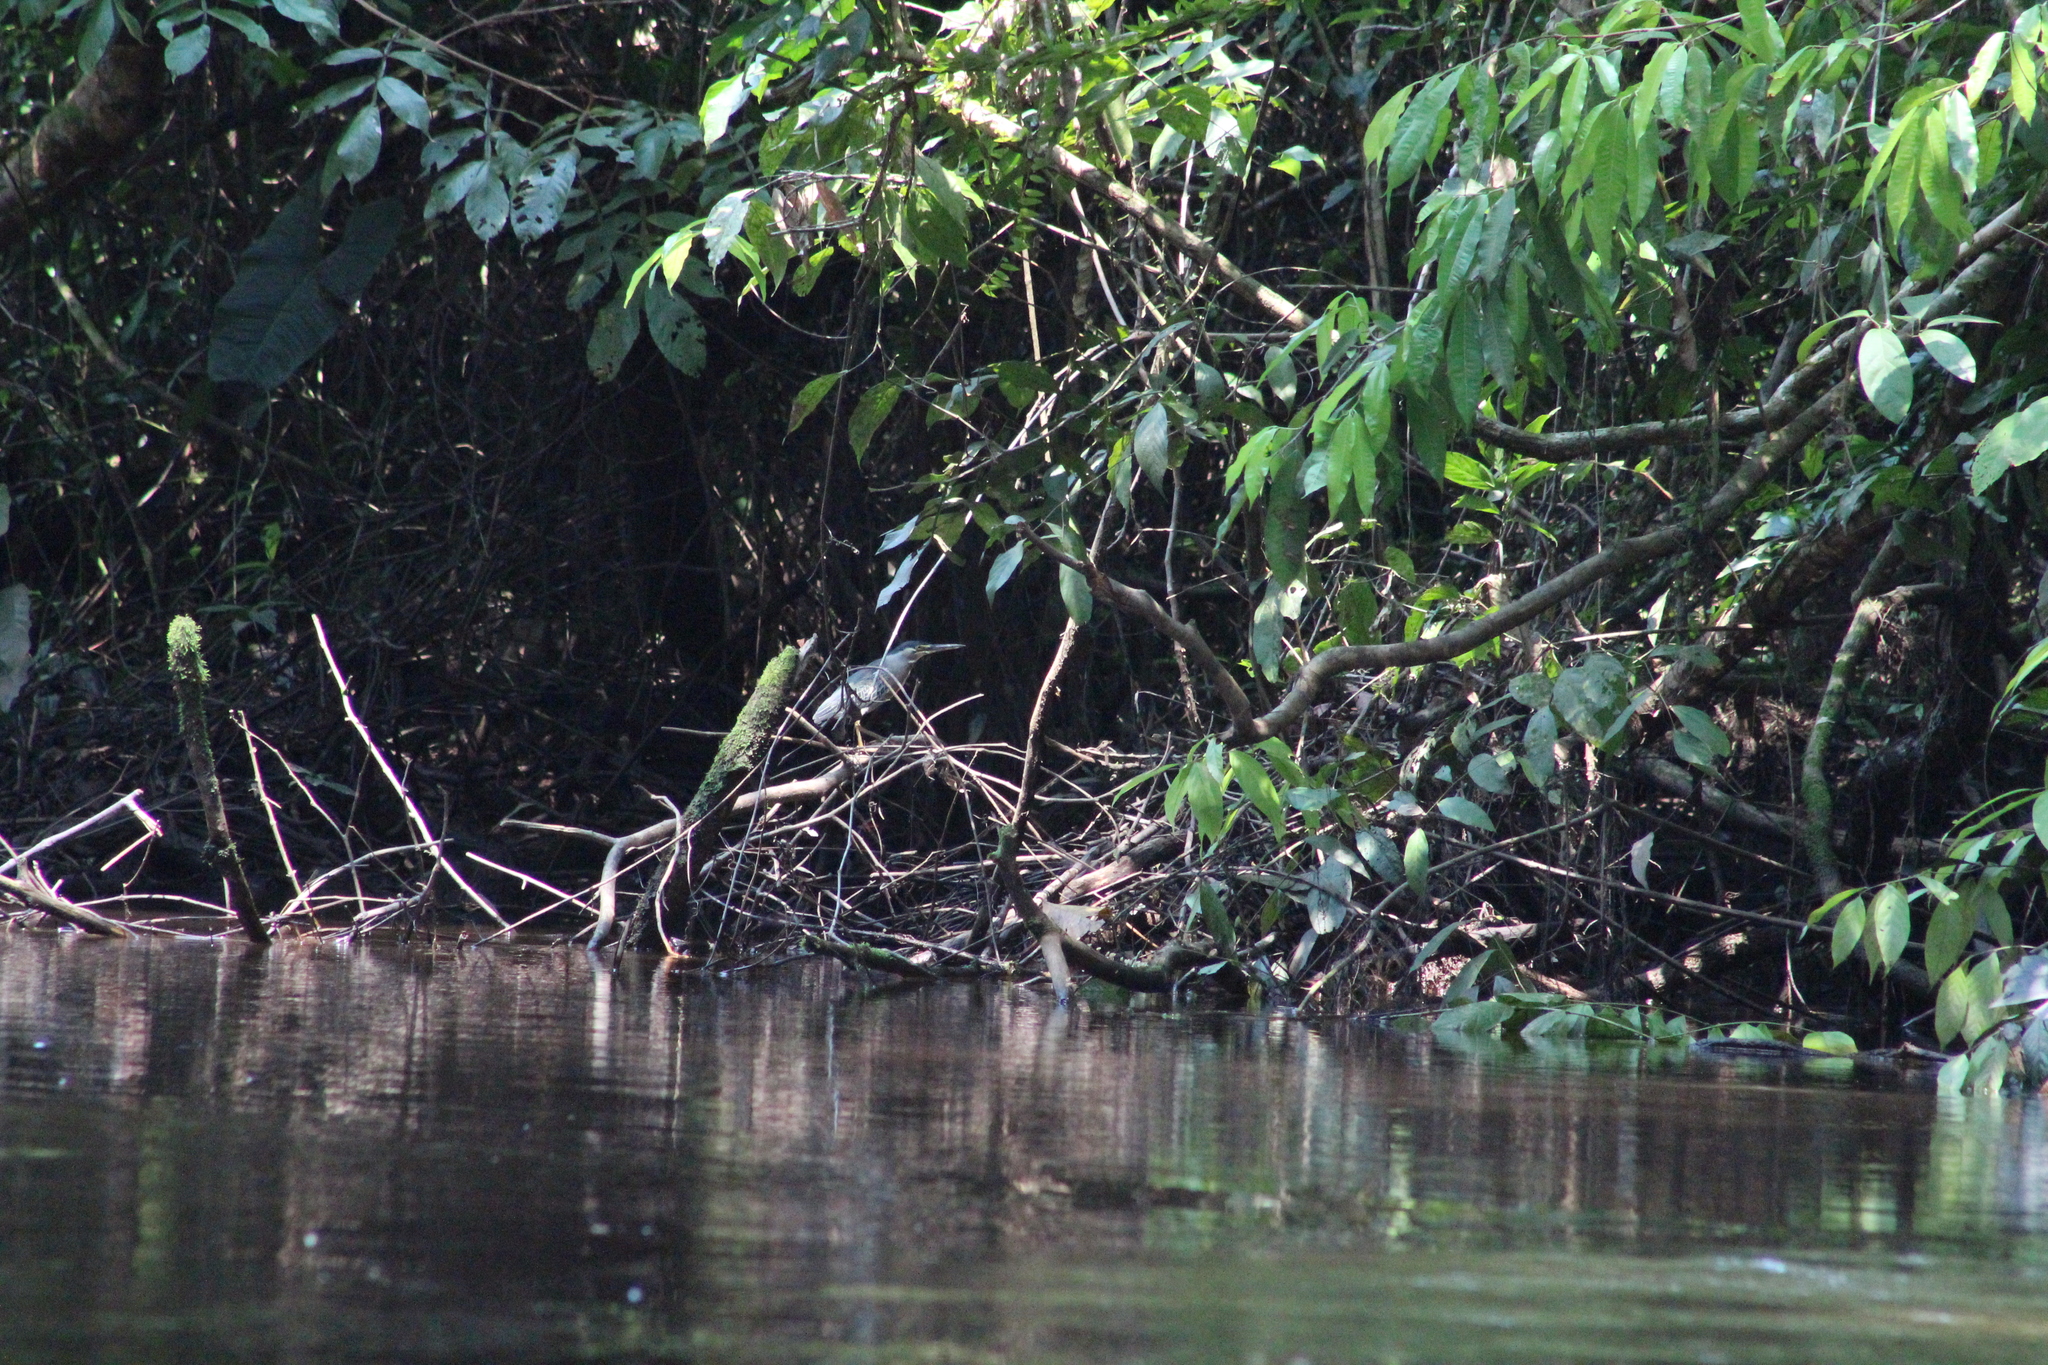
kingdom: Animalia
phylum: Chordata
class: Aves
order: Pelecaniformes
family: Ardeidae
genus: Butorides
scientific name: Butorides striata
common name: Striated heron
